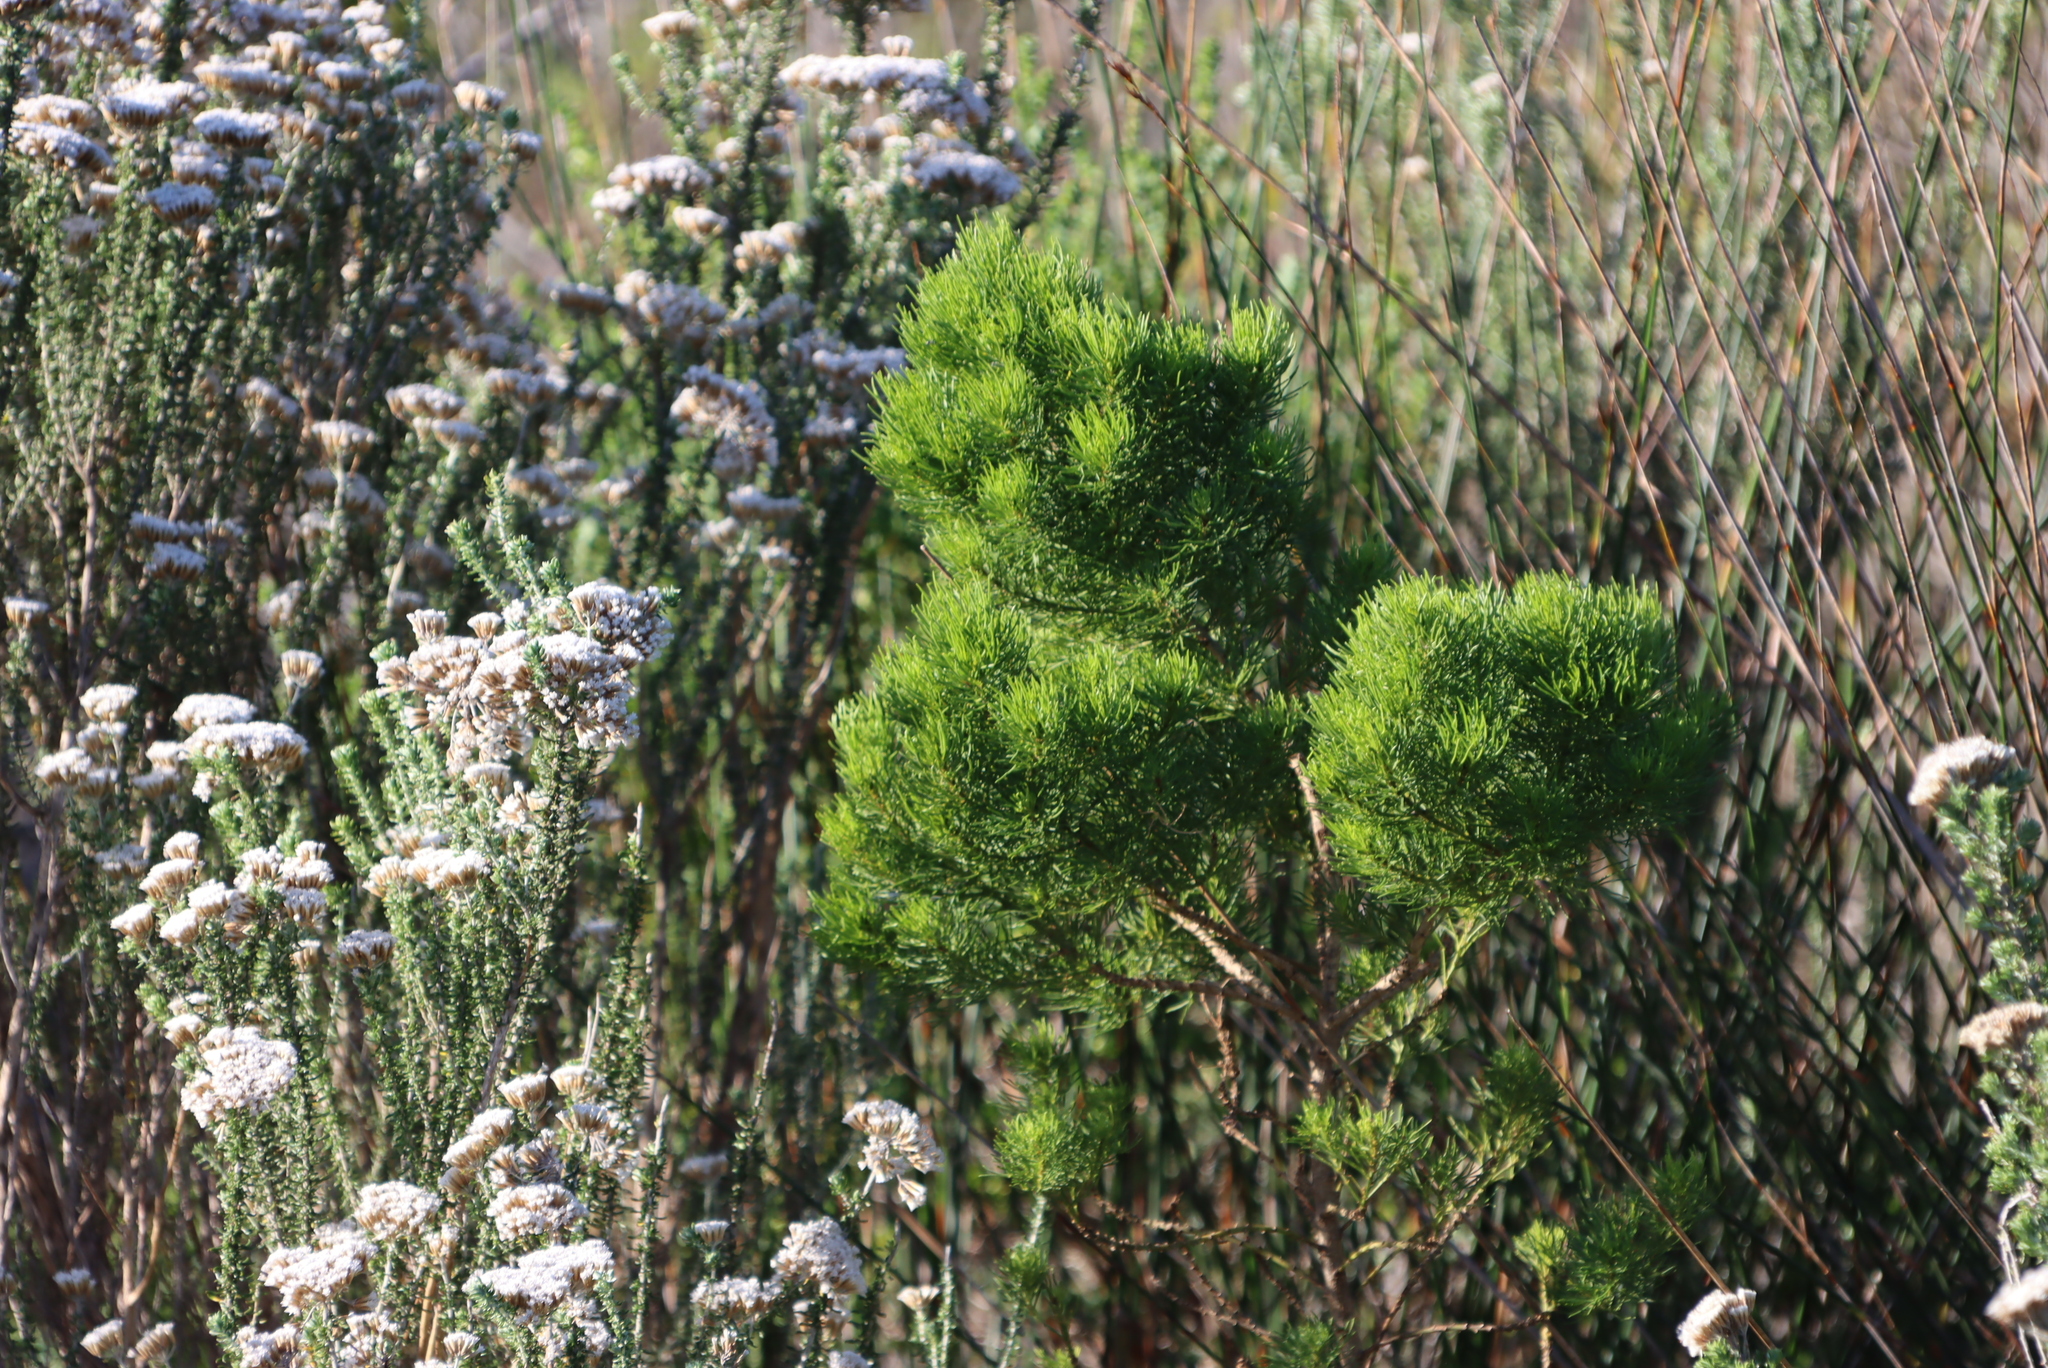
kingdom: Plantae
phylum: Tracheophyta
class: Magnoliopsida
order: Fabales
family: Fabaceae
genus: Psoralea
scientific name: Psoralea muirii
